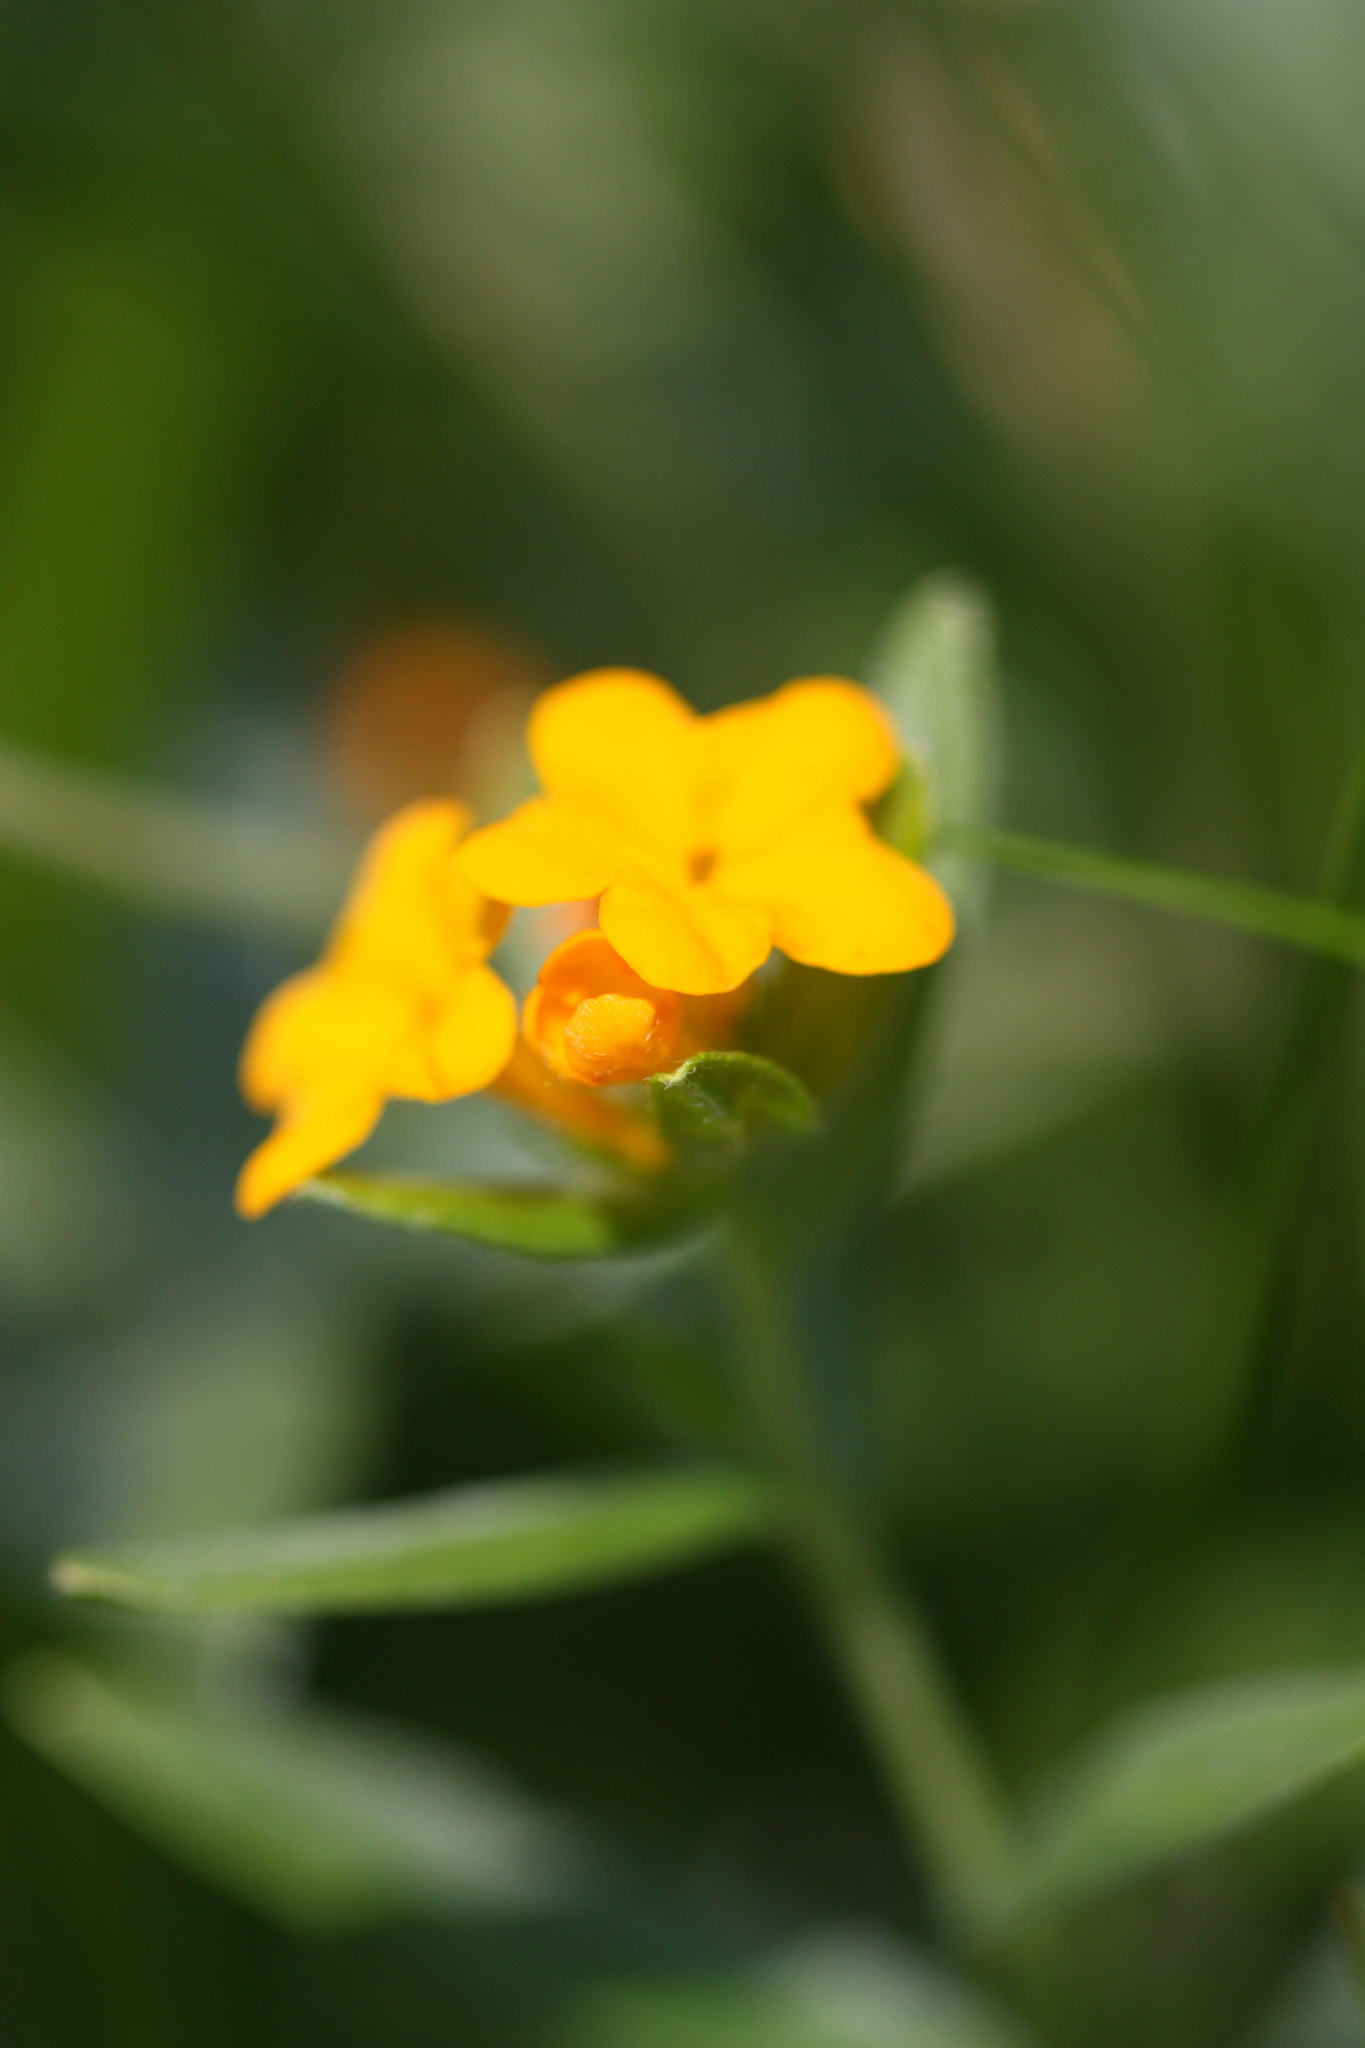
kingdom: Plantae
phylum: Tracheophyta
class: Magnoliopsida
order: Boraginales
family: Boraginaceae
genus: Lithospermum
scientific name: Lithospermum canescens
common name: Hoary puccoon
